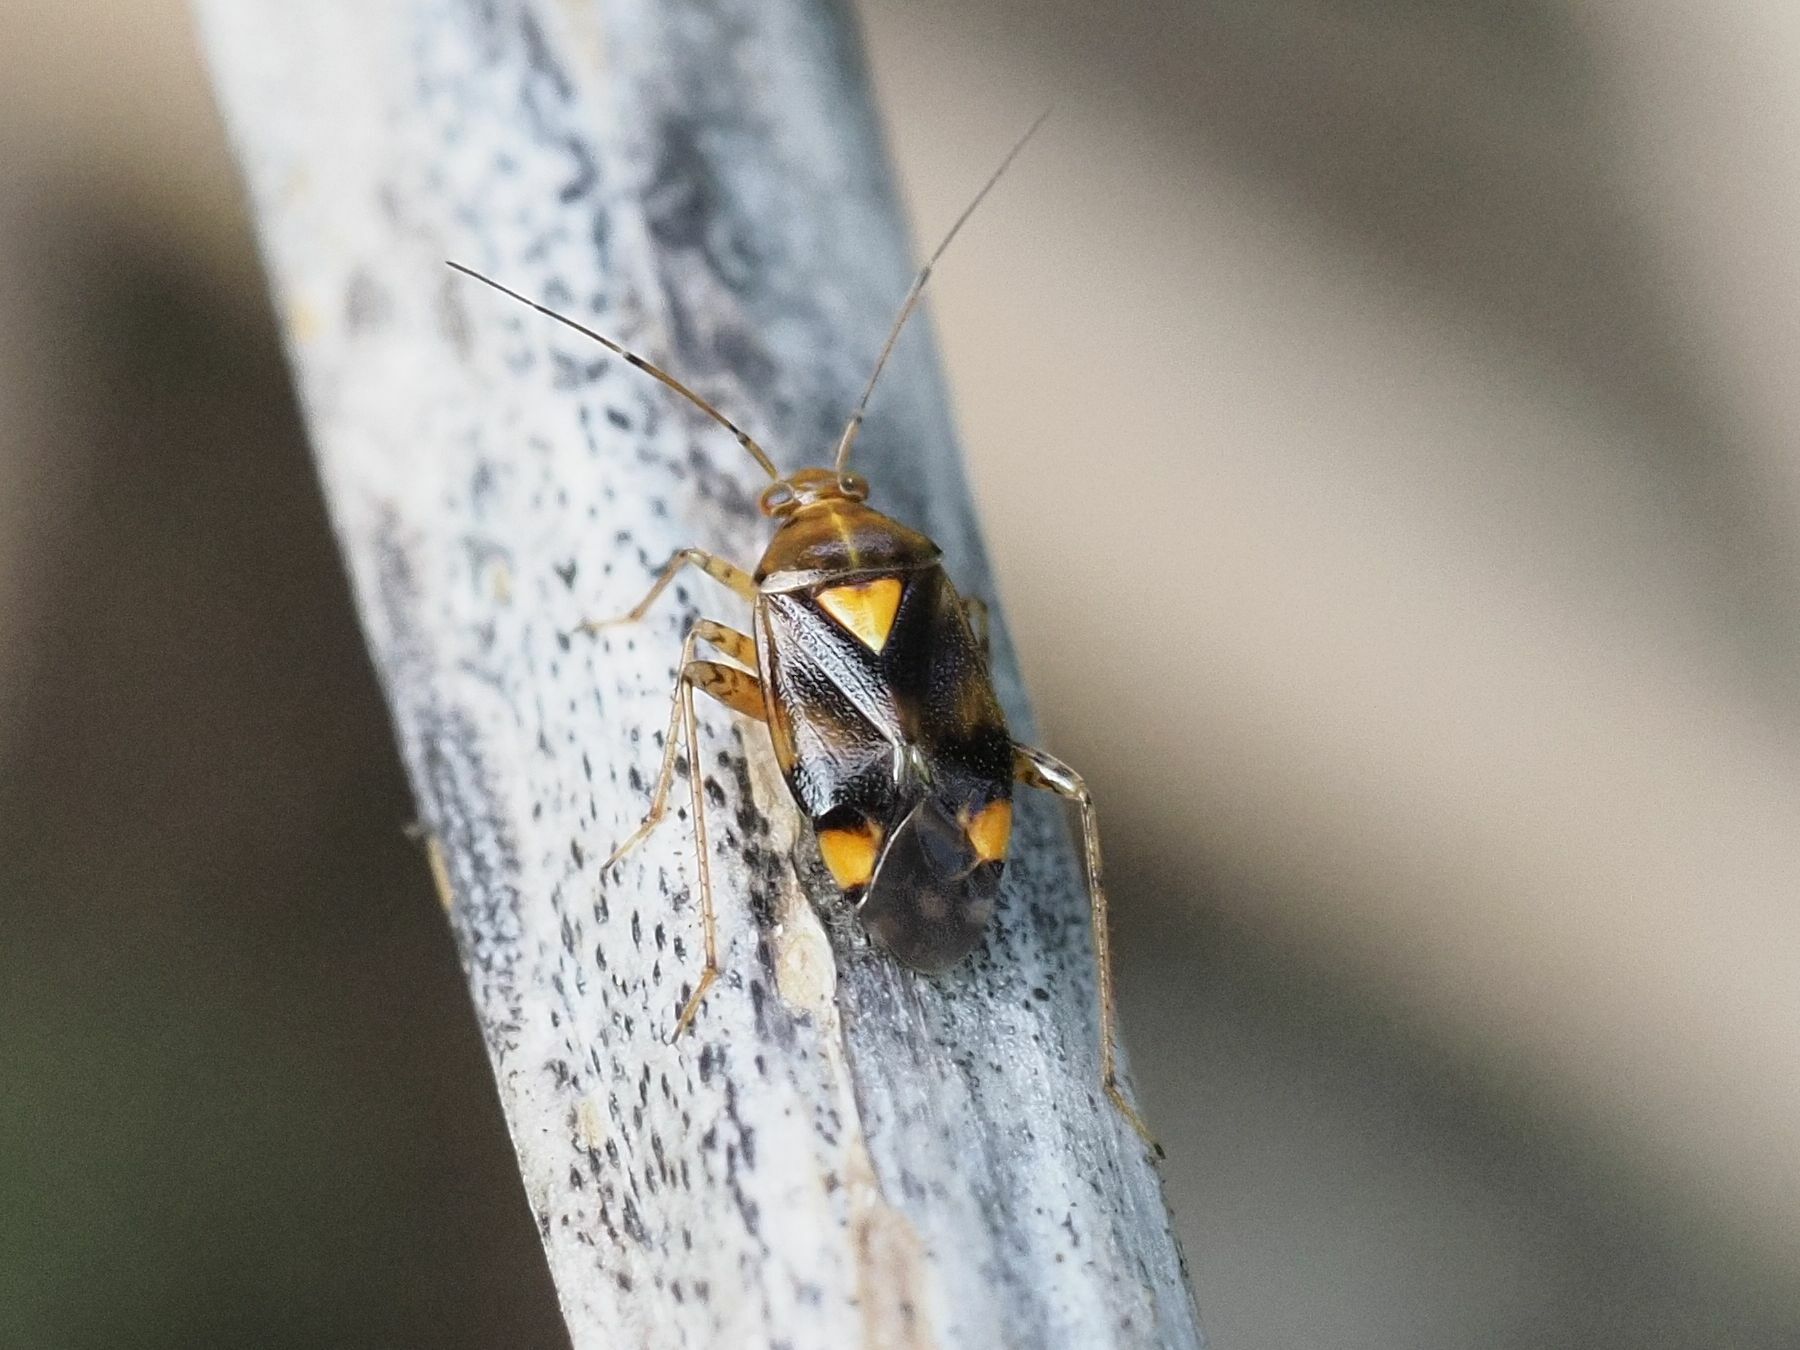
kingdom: Animalia
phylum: Arthropoda
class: Insecta
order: Hemiptera
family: Miridae
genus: Liocoris
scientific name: Liocoris tripustulatus
